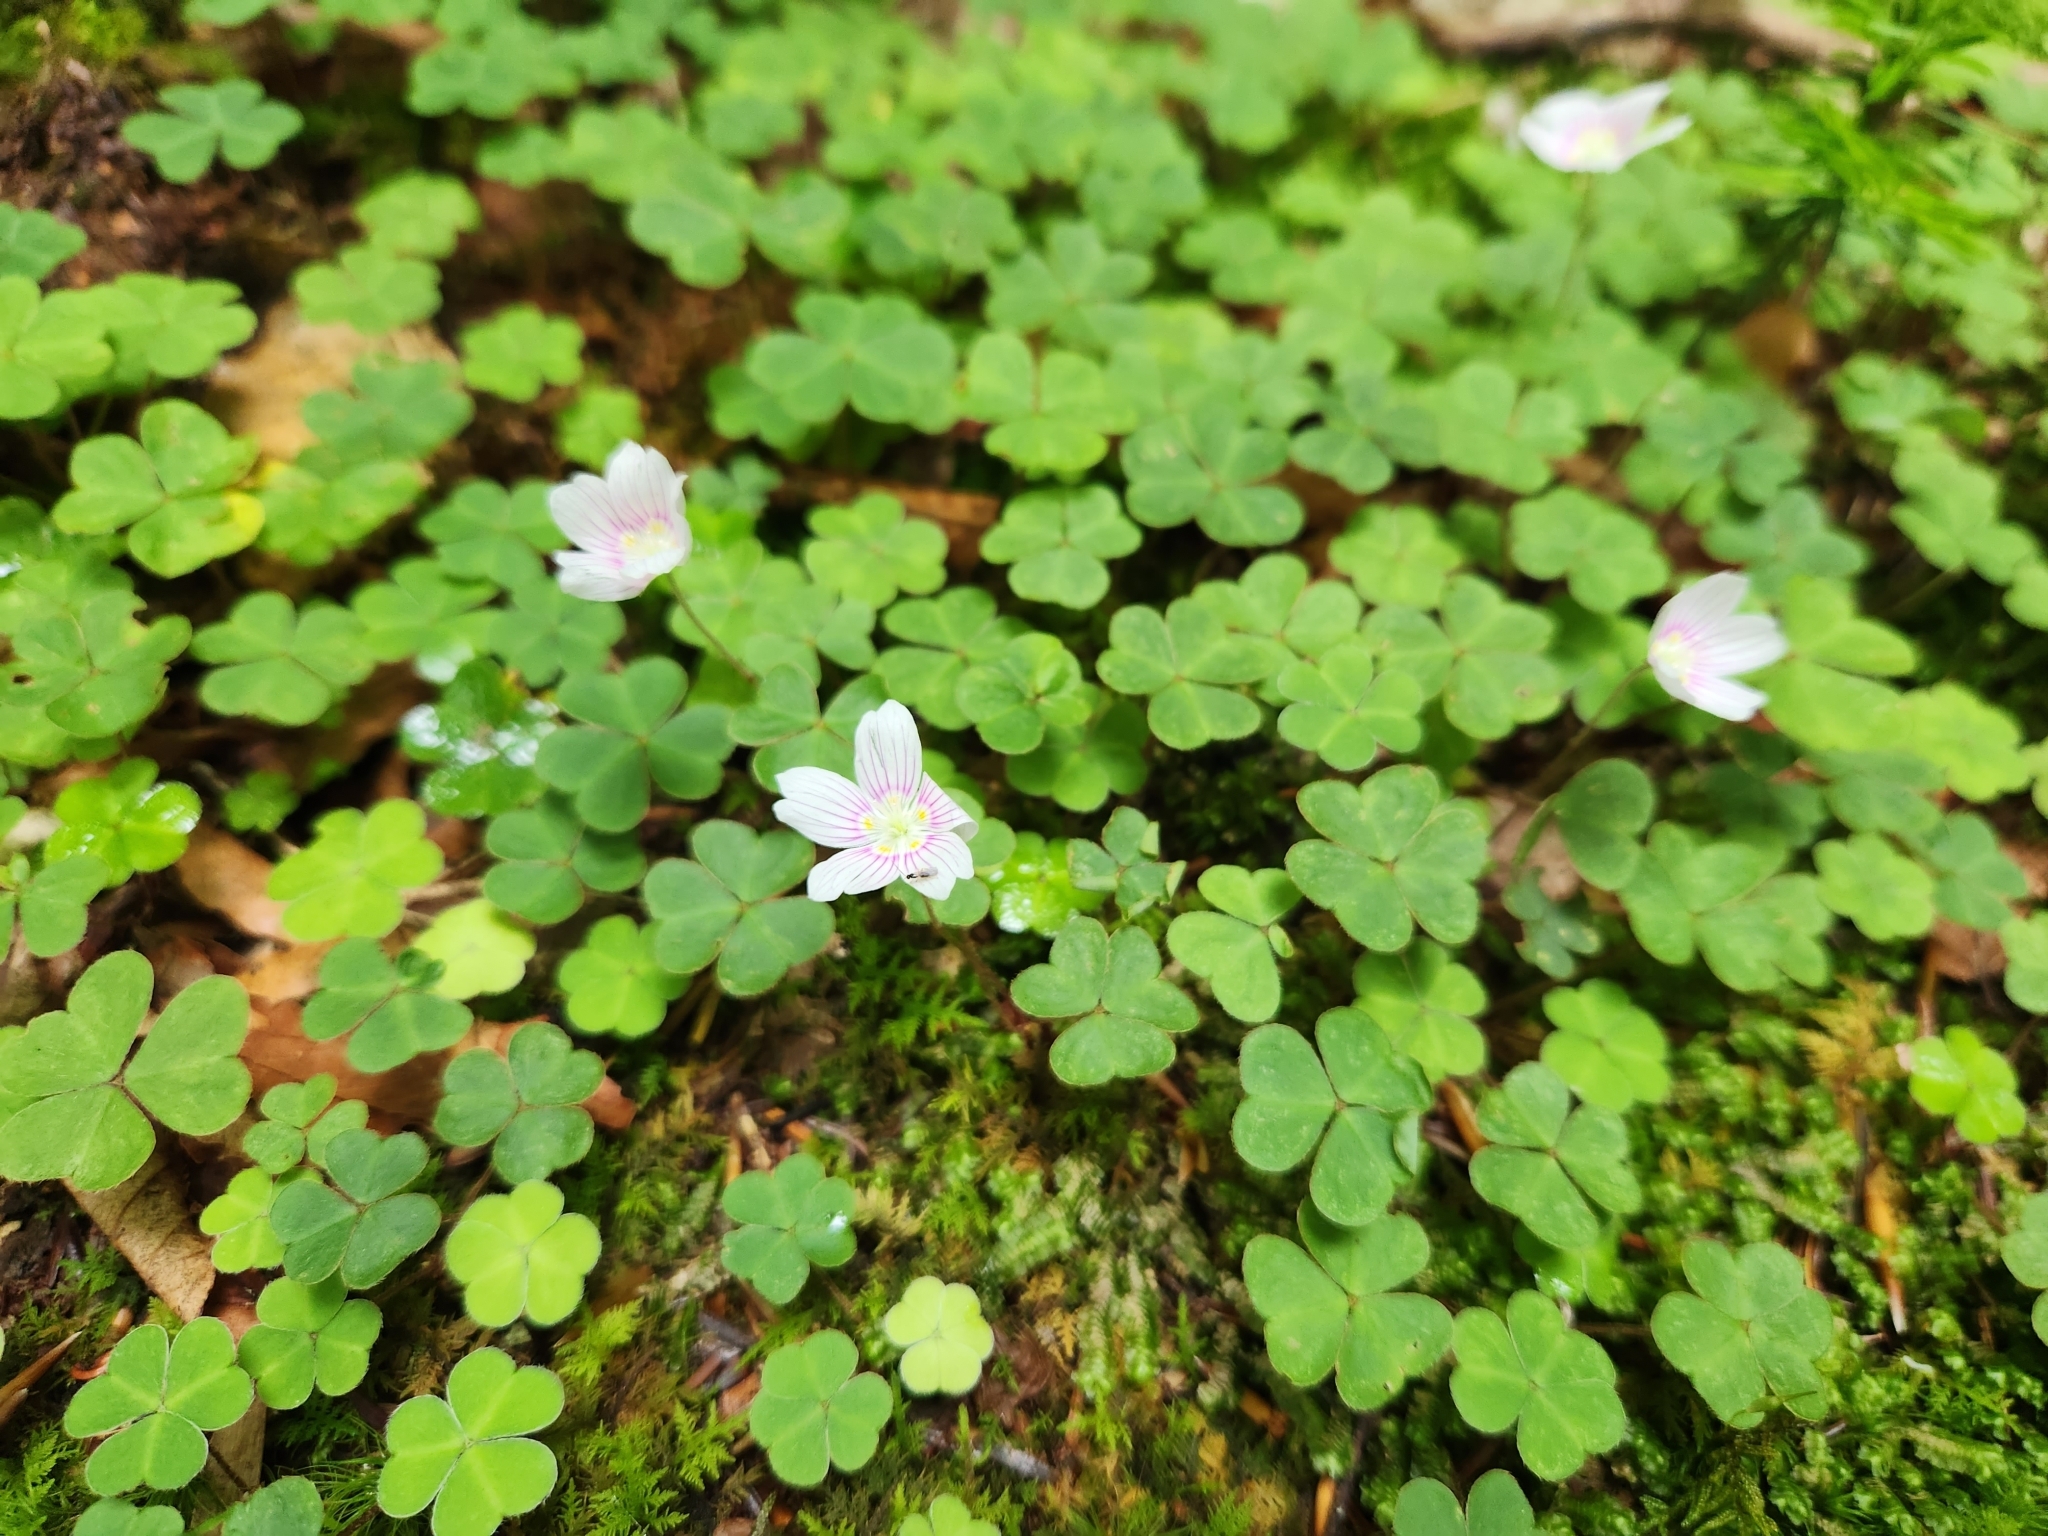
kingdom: Plantae
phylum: Tracheophyta
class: Magnoliopsida
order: Oxalidales
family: Oxalidaceae
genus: Oxalis
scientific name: Oxalis montana
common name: American wood-sorrel
